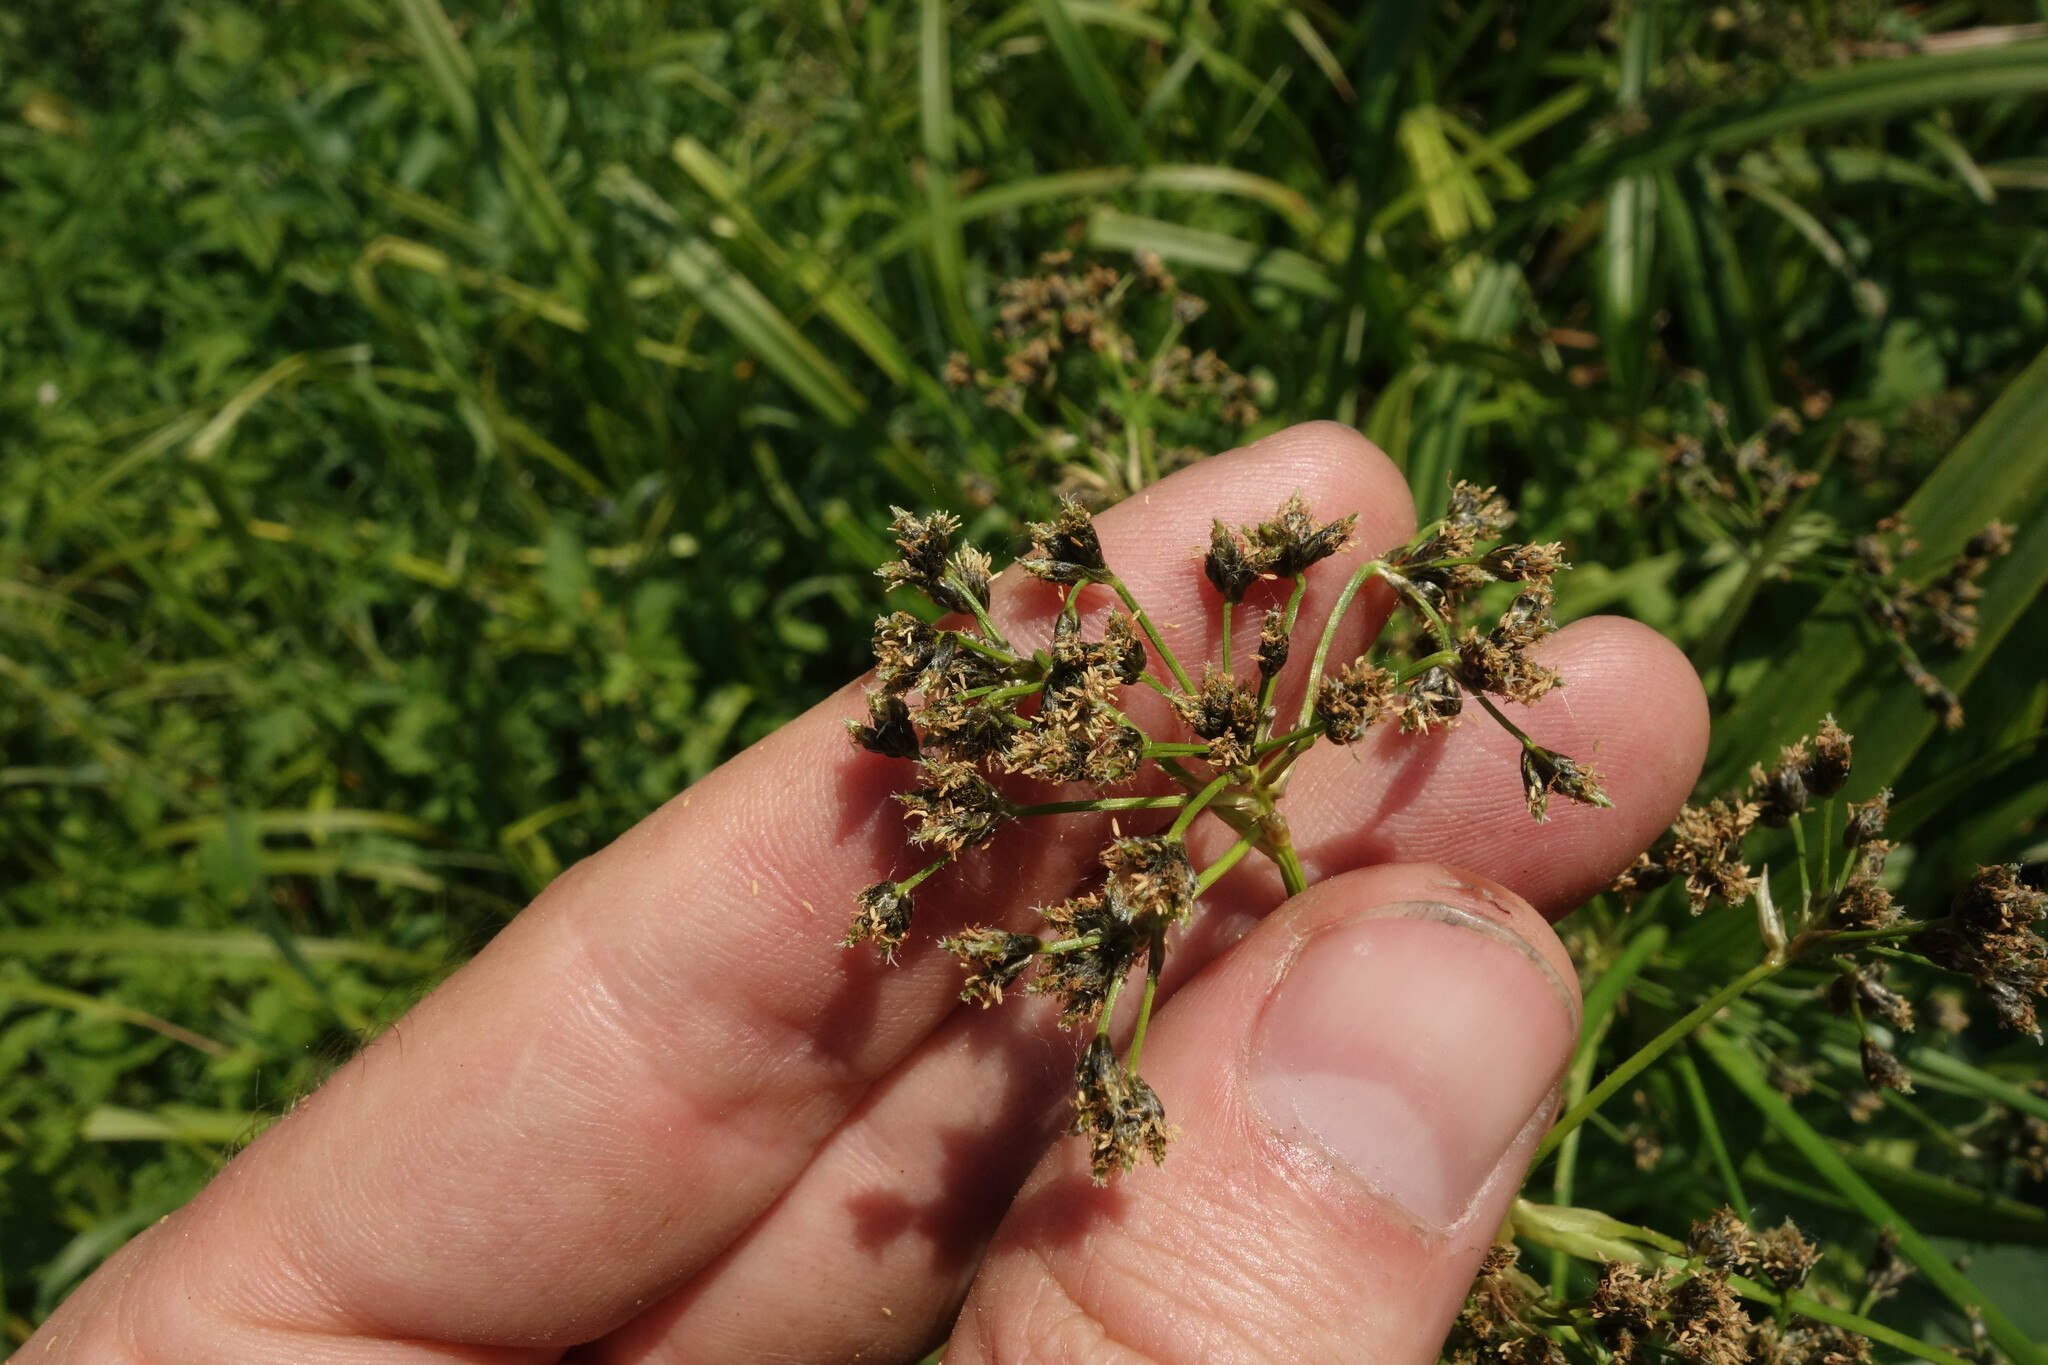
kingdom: Plantae
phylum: Tracheophyta
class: Liliopsida
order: Poales
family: Cyperaceae
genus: Scirpus
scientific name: Scirpus sylvaticus
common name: Wood club-rush
